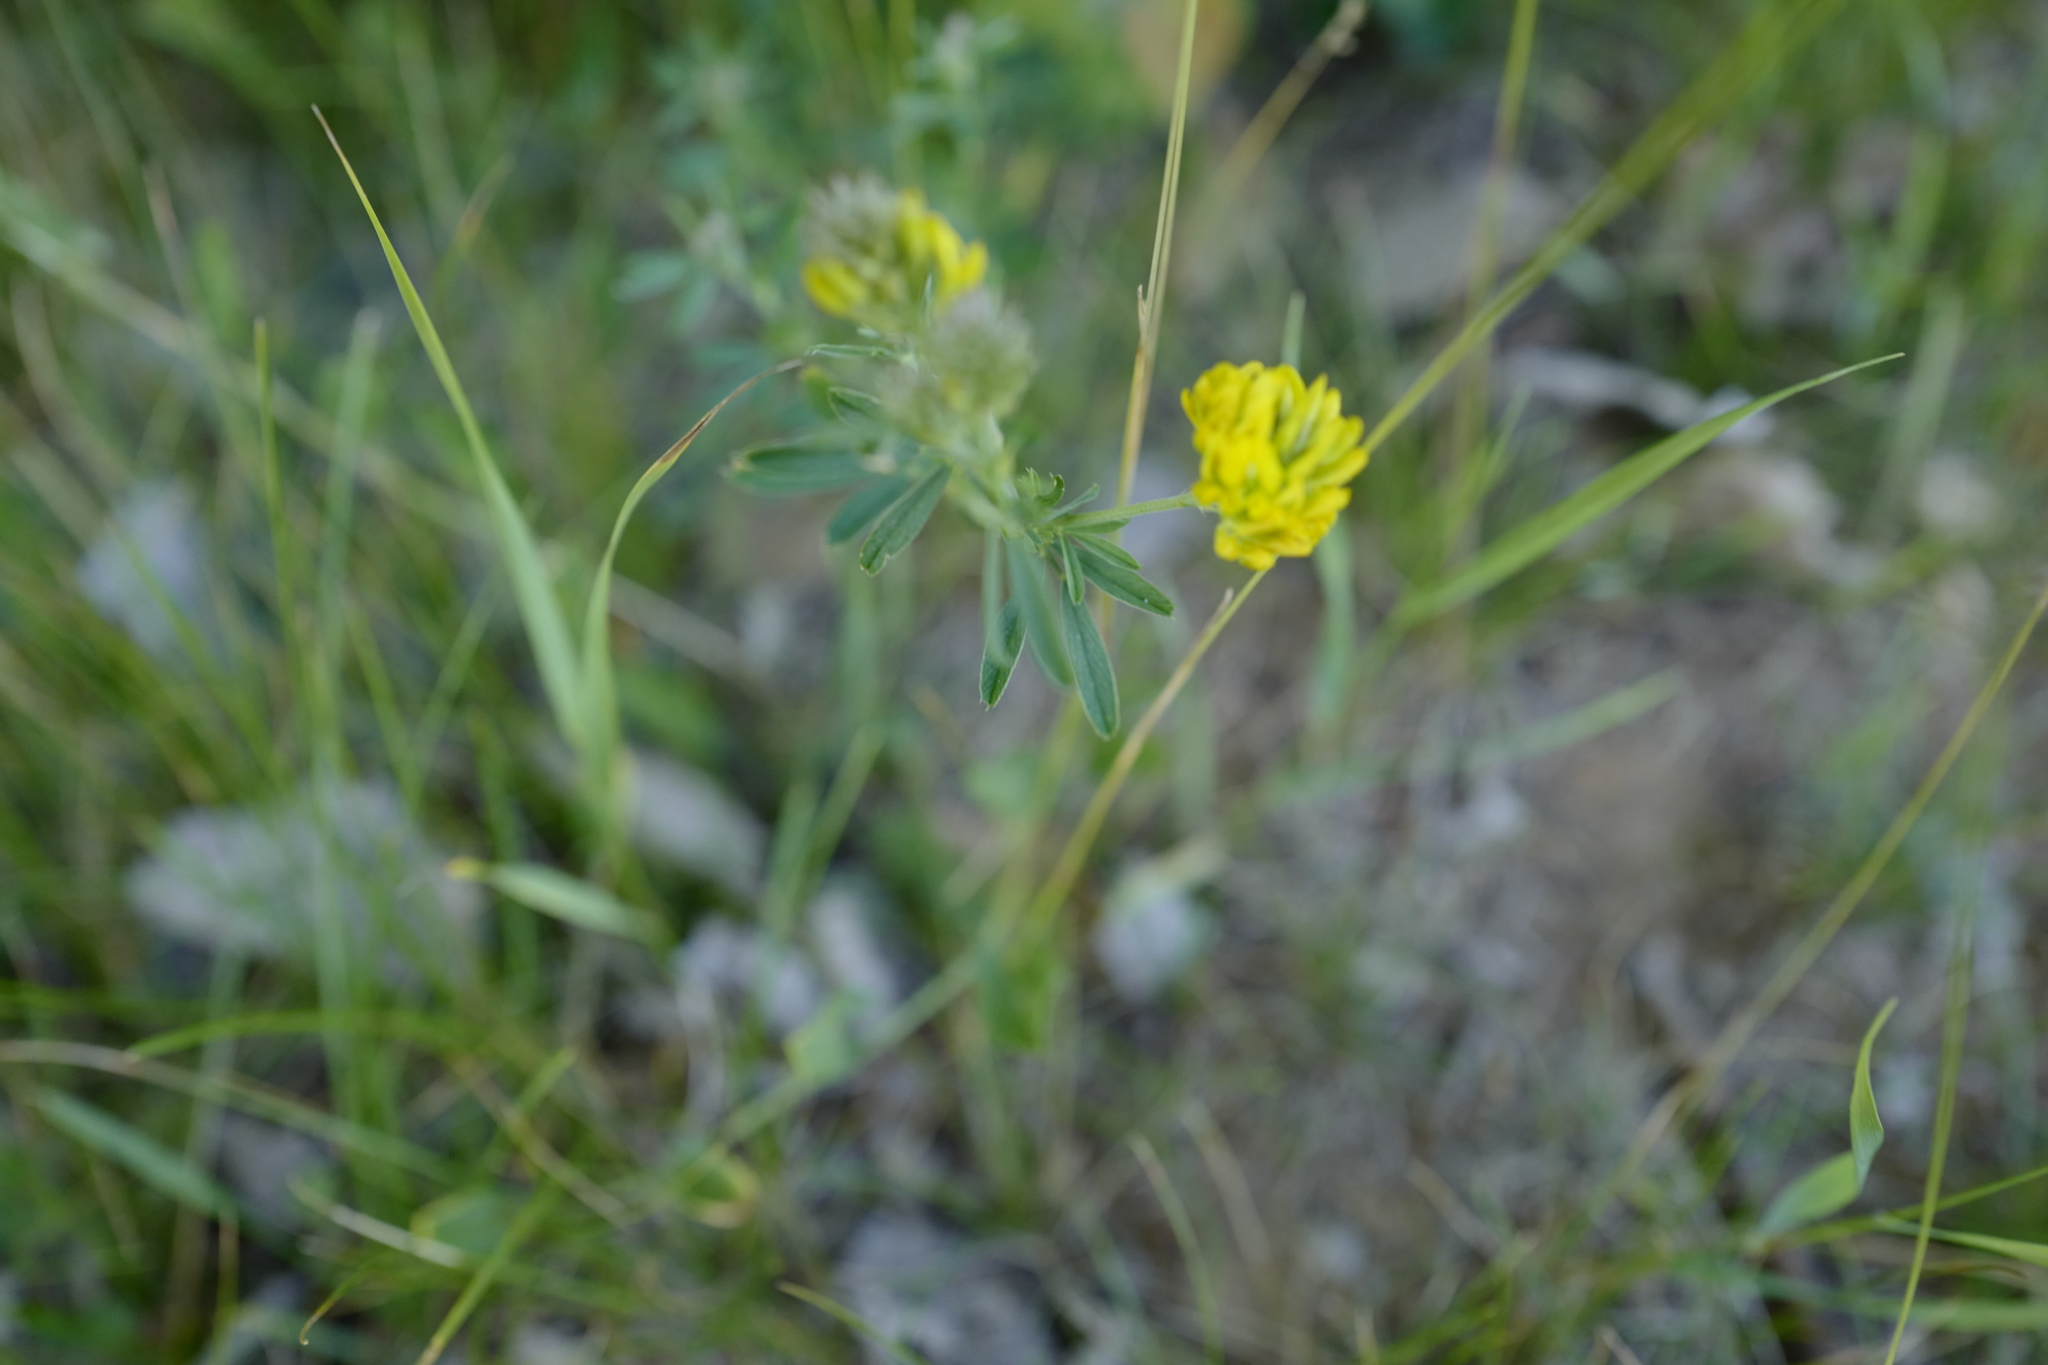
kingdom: Plantae
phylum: Tracheophyta
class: Magnoliopsida
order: Fabales
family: Fabaceae
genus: Medicago
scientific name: Medicago falcata
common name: Sickle medick
